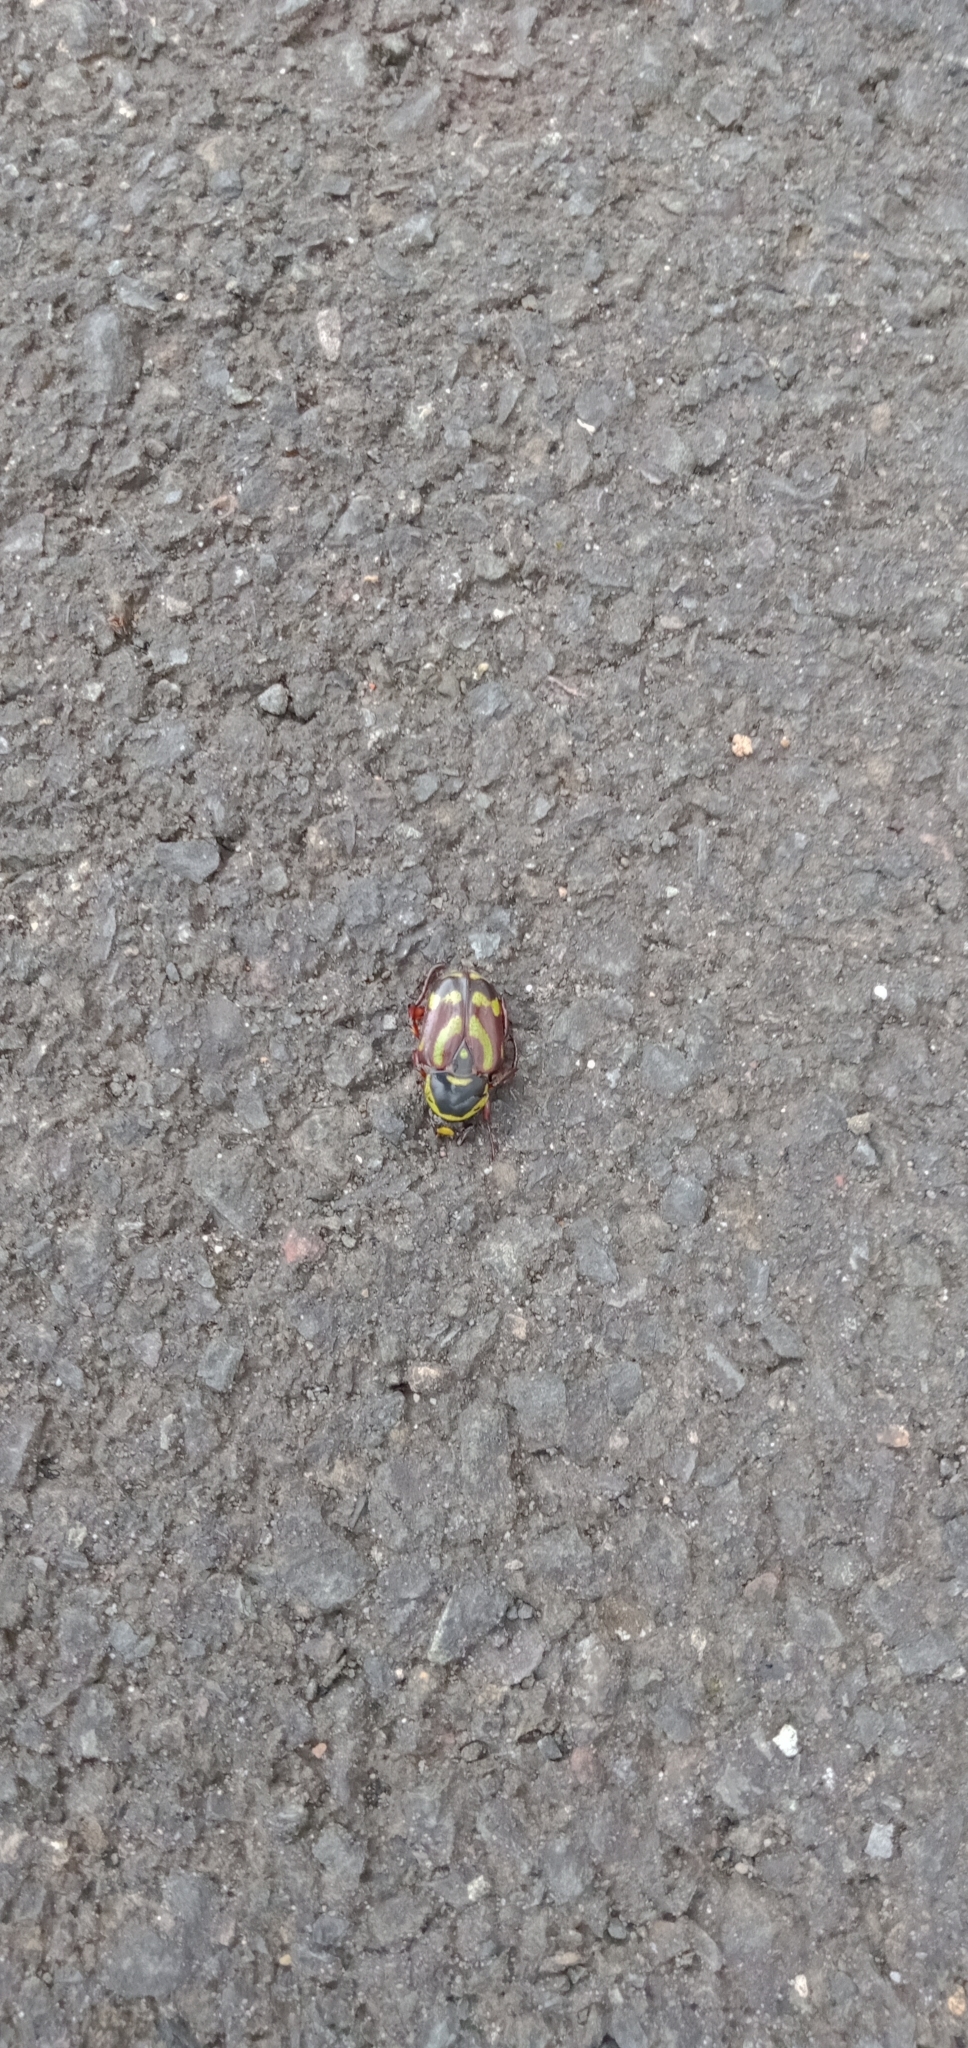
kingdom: Animalia
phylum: Arthropoda
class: Insecta
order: Coleoptera
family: Scarabaeidae
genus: Chlorobapta
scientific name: Chlorobapta frontalis
